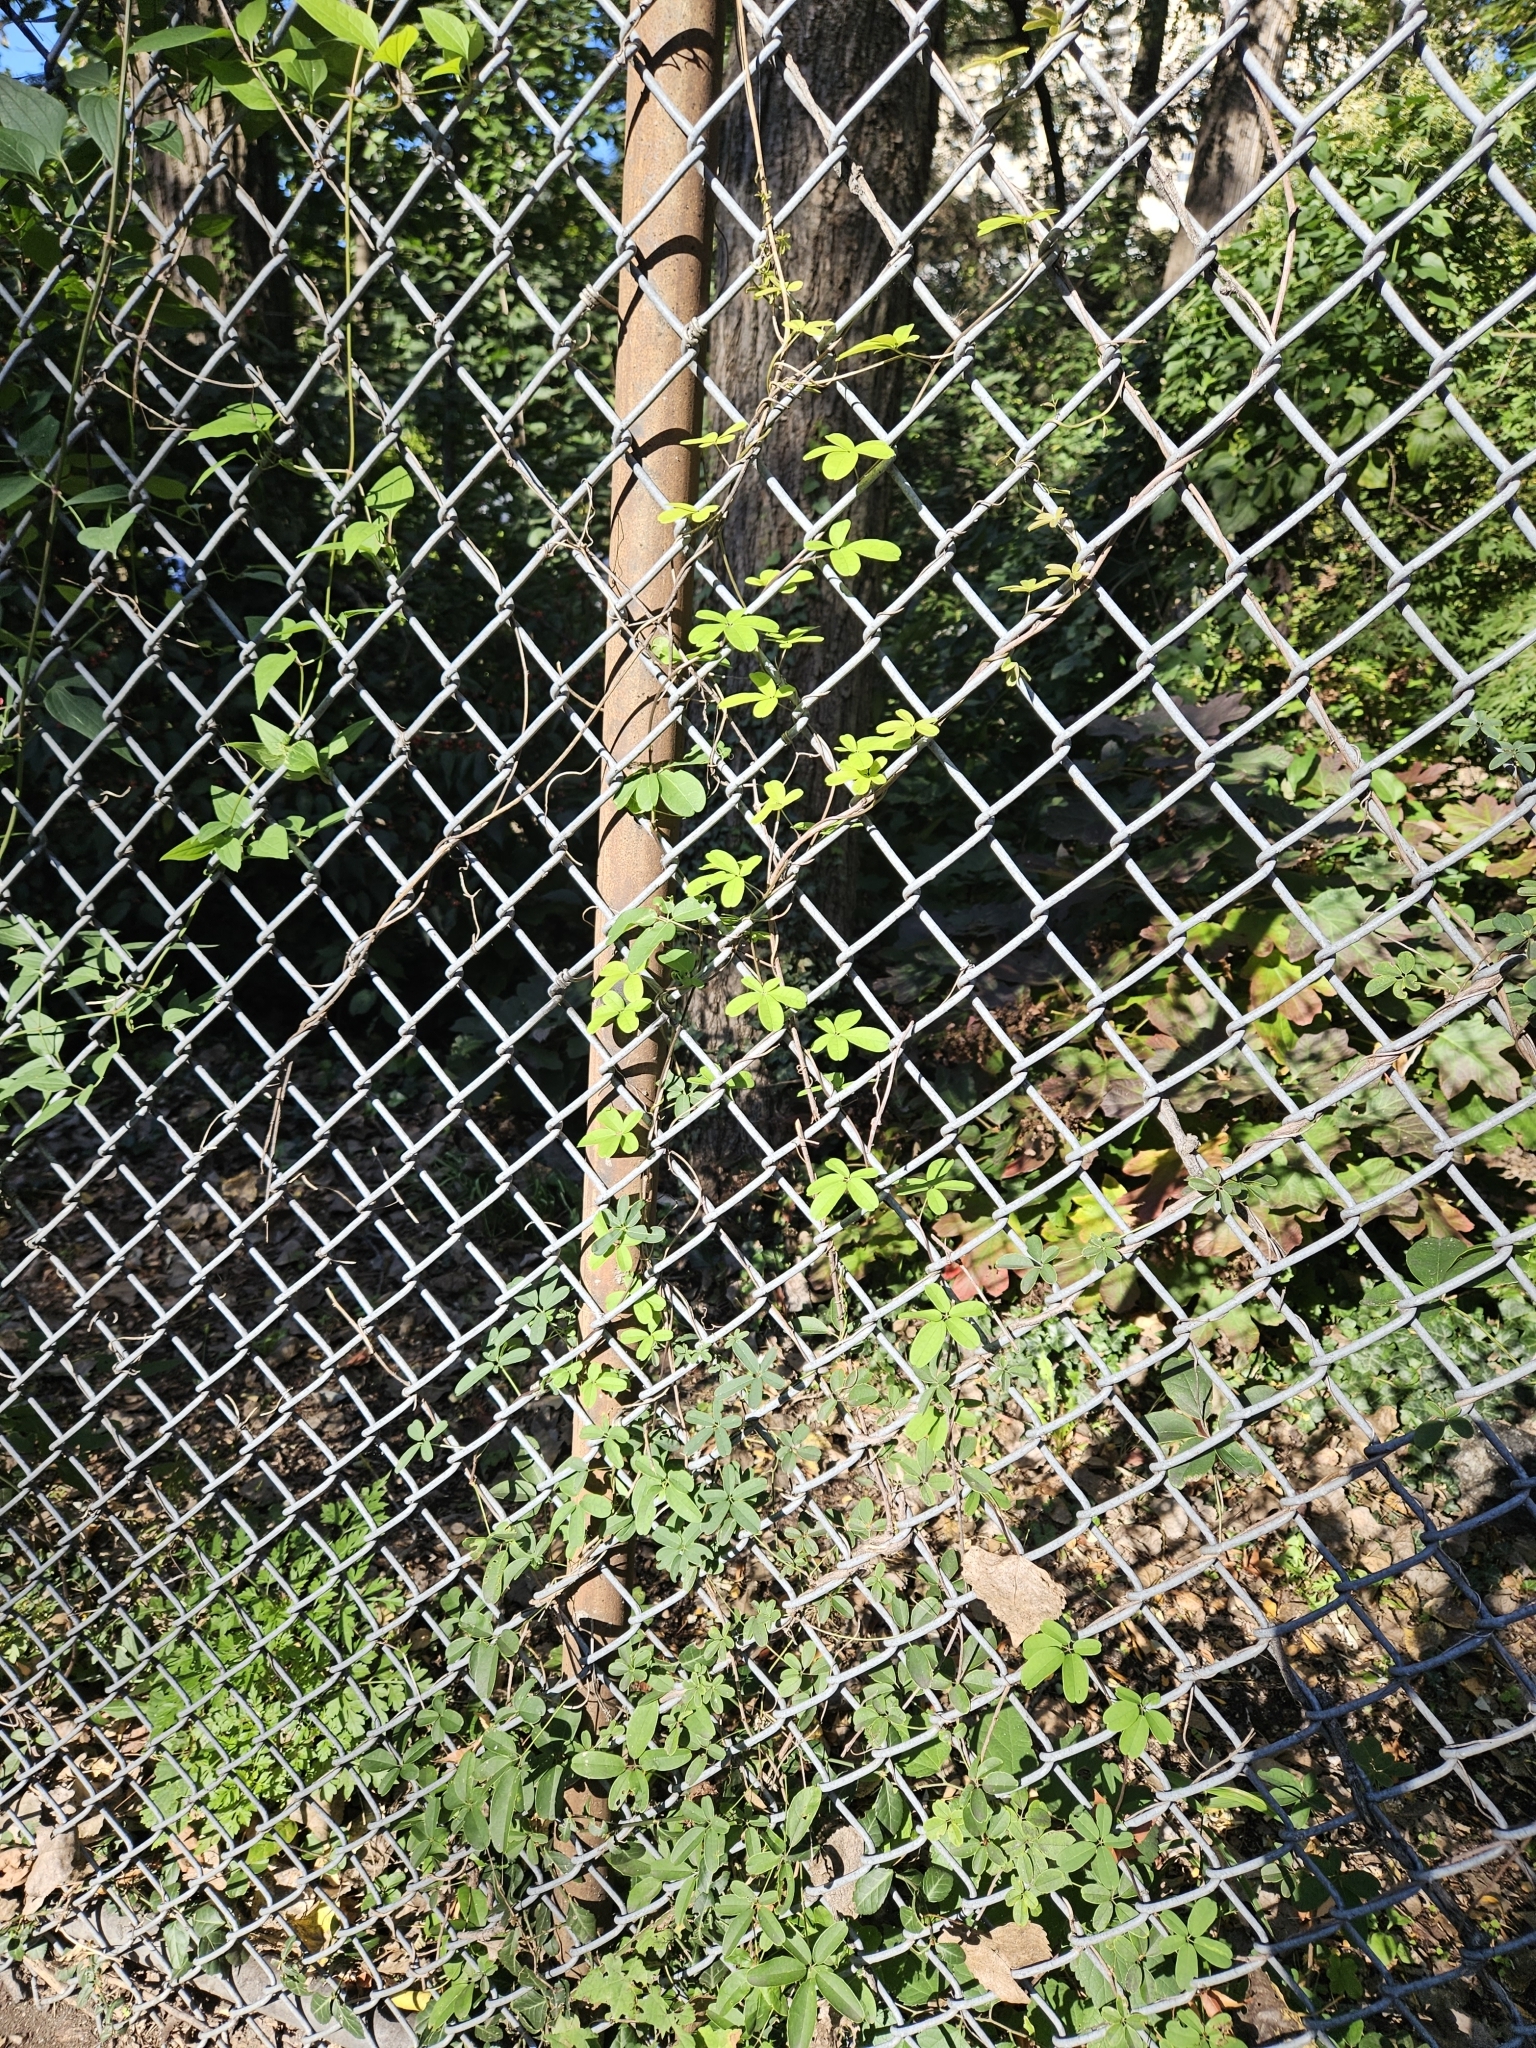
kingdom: Plantae
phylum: Tracheophyta
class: Magnoliopsida
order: Ranunculales
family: Lardizabalaceae
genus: Akebia
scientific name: Akebia quinata
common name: Five-leaf akebia
